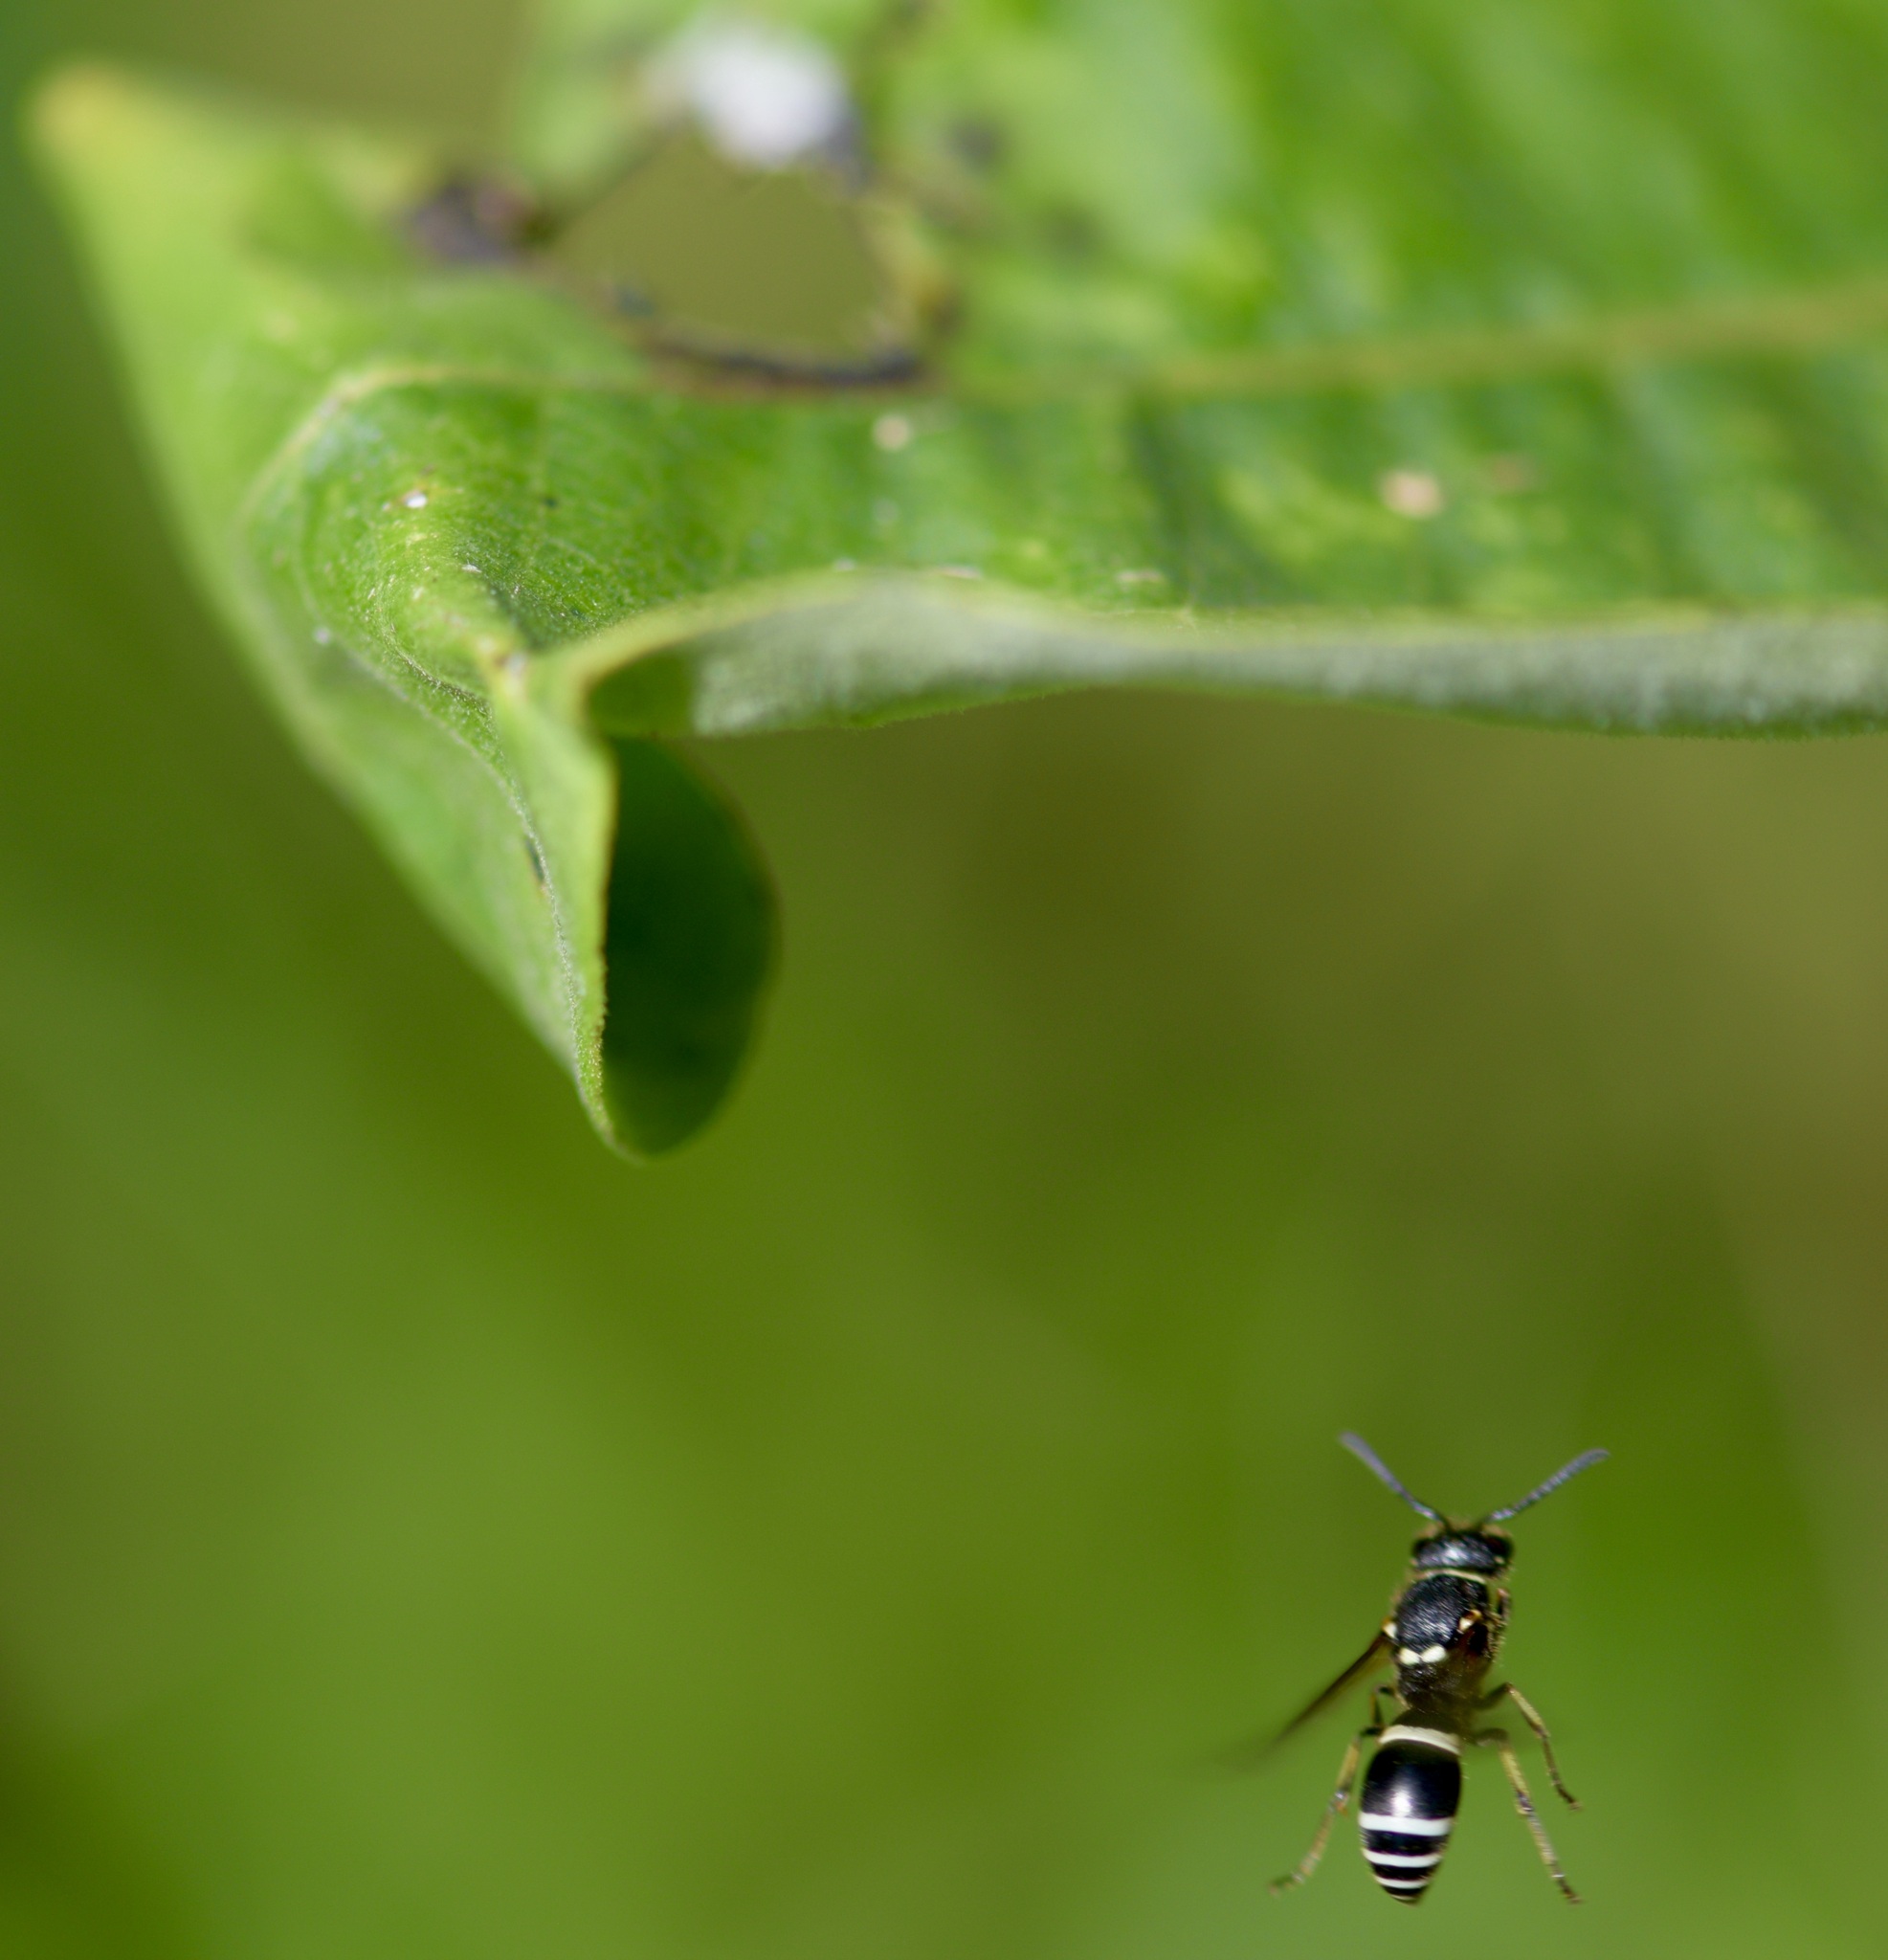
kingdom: Animalia
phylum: Arthropoda
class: Insecta
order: Hymenoptera
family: Vespidae
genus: Ancistrocerus
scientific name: Ancistrocerus albophaleratus
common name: White-banded potter wasp
